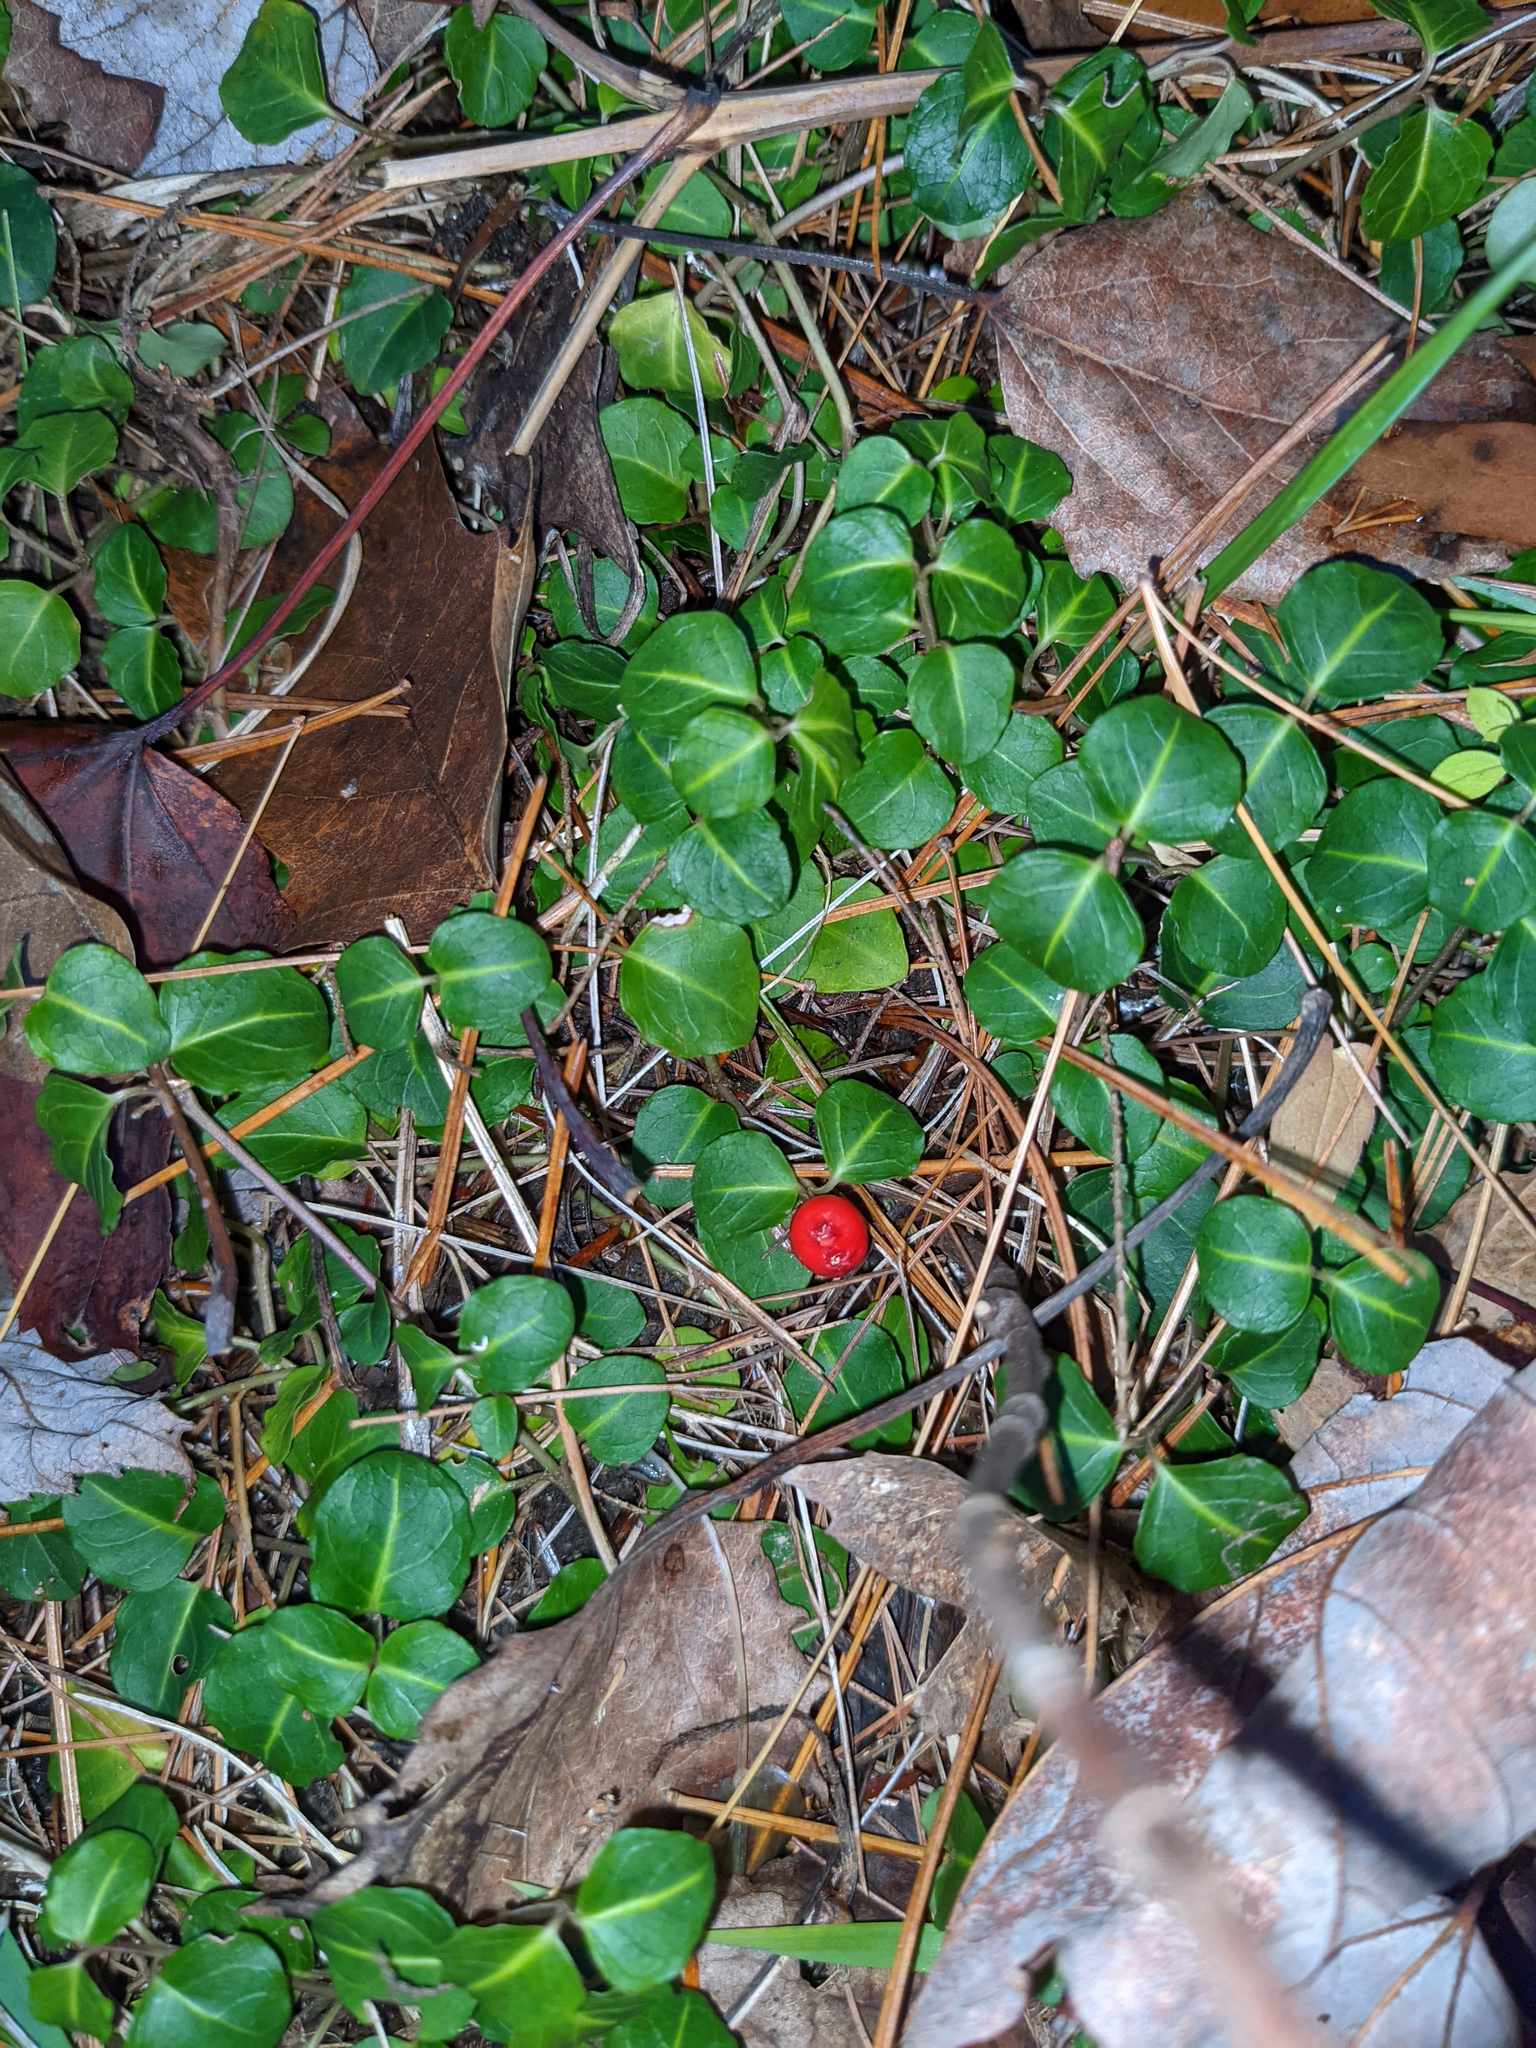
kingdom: Plantae
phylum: Tracheophyta
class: Magnoliopsida
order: Gentianales
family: Rubiaceae
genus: Mitchella
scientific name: Mitchella repens
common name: Partridge-berry
